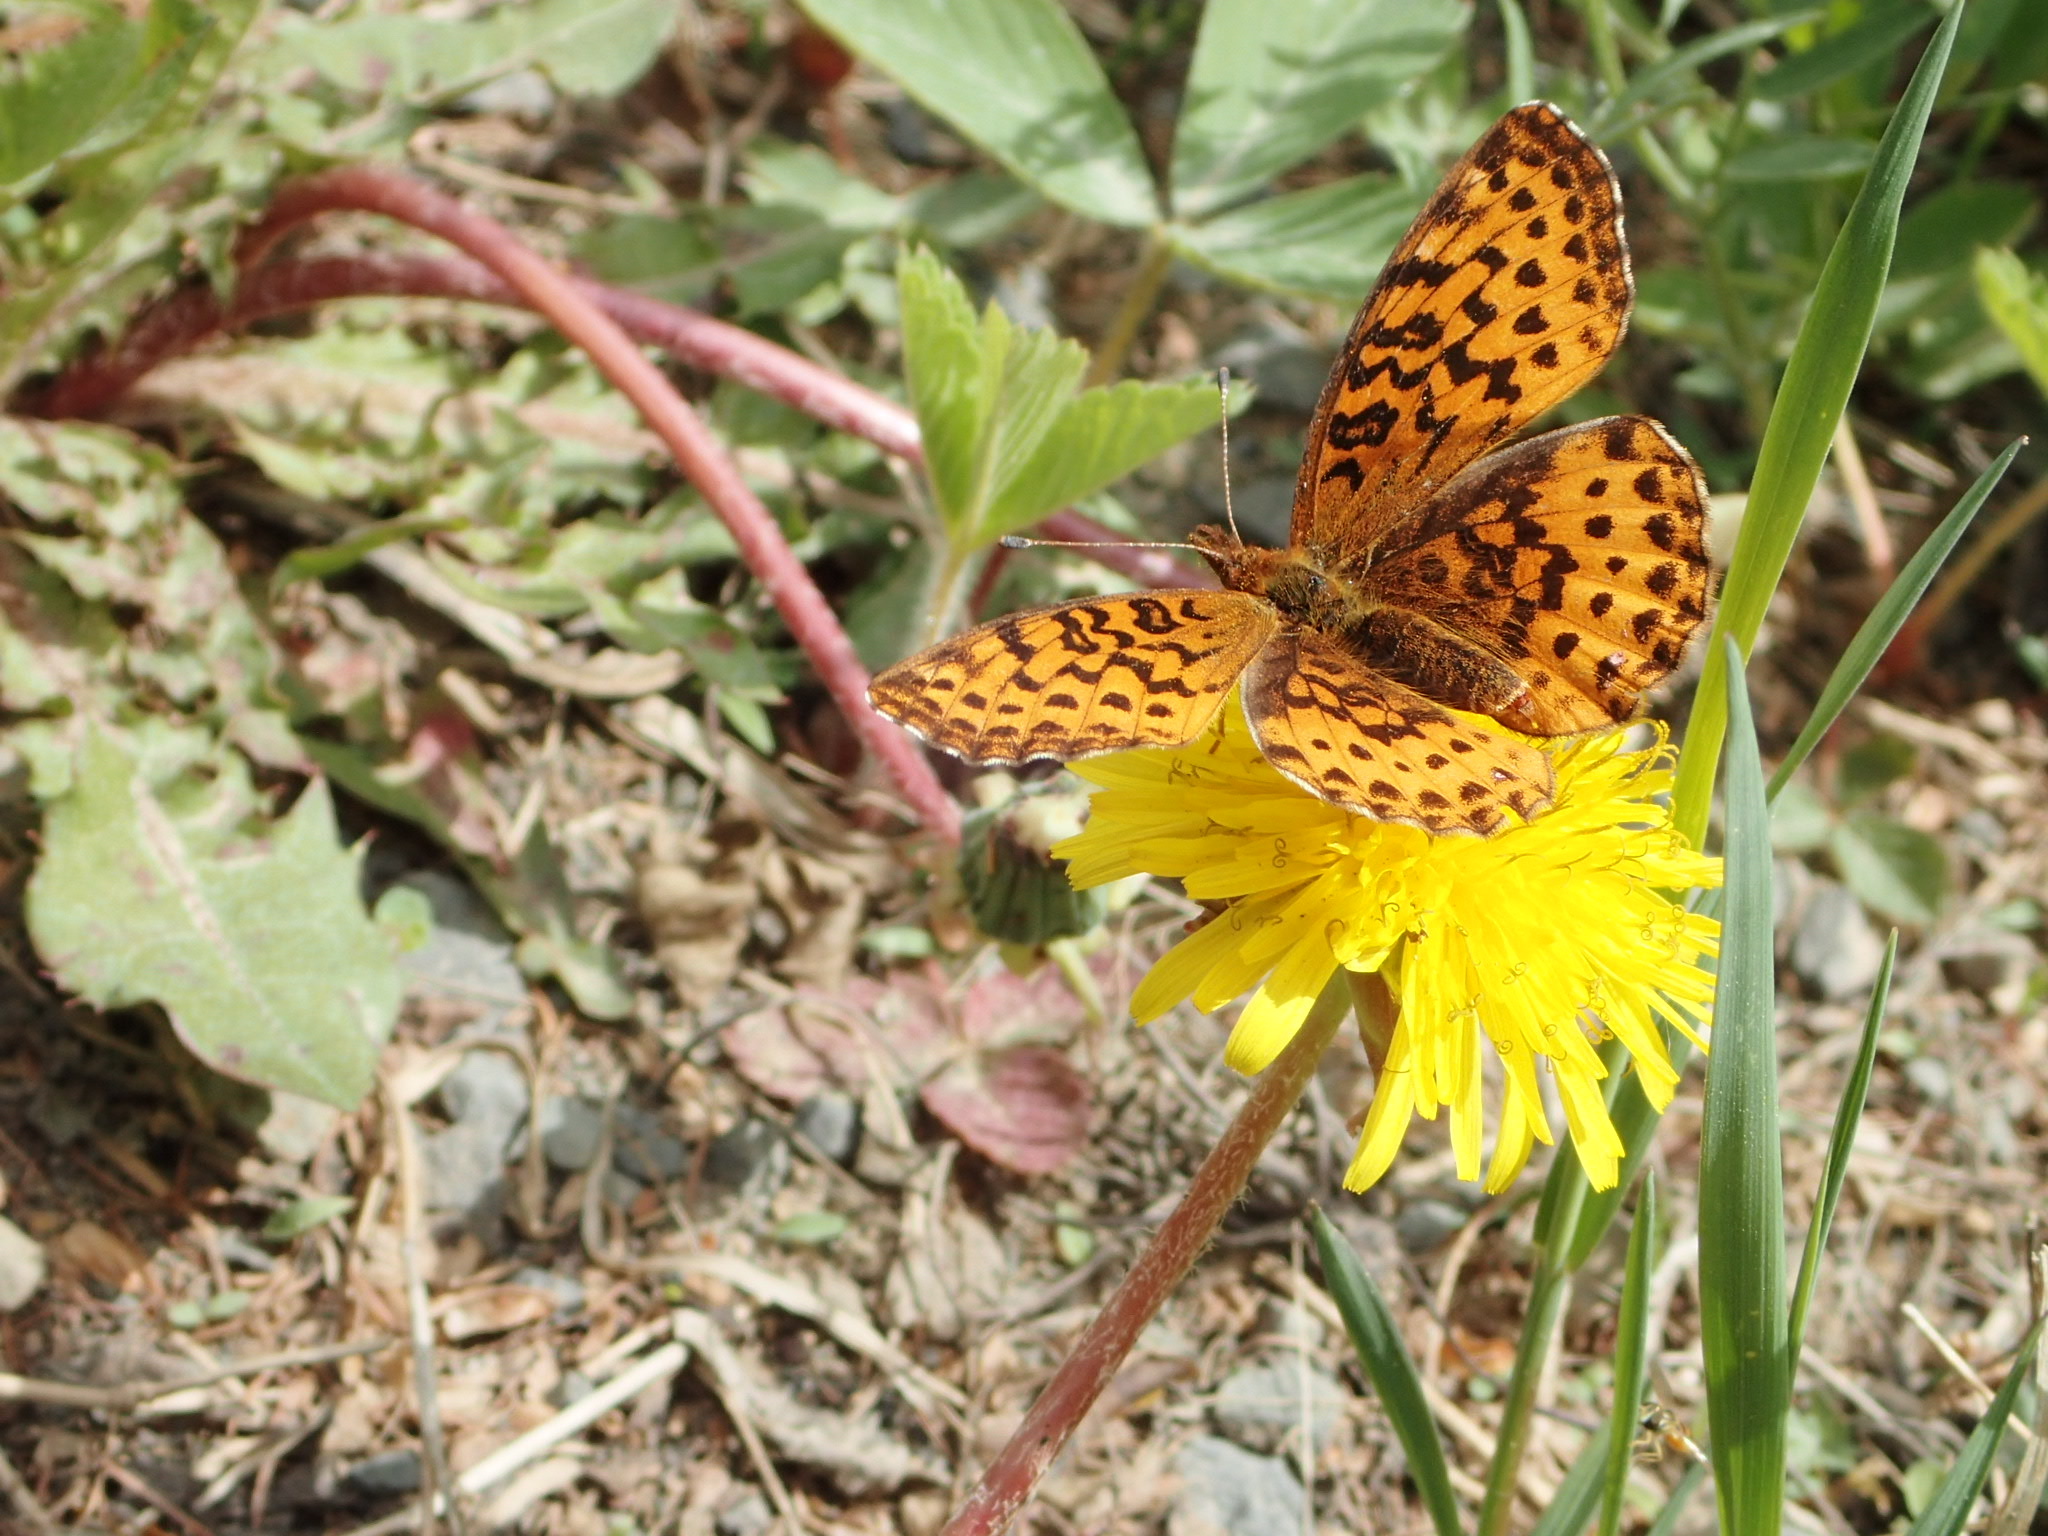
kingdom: Animalia
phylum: Arthropoda
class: Insecta
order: Lepidoptera
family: Nymphalidae
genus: Clossiana
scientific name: Clossiana toddi
